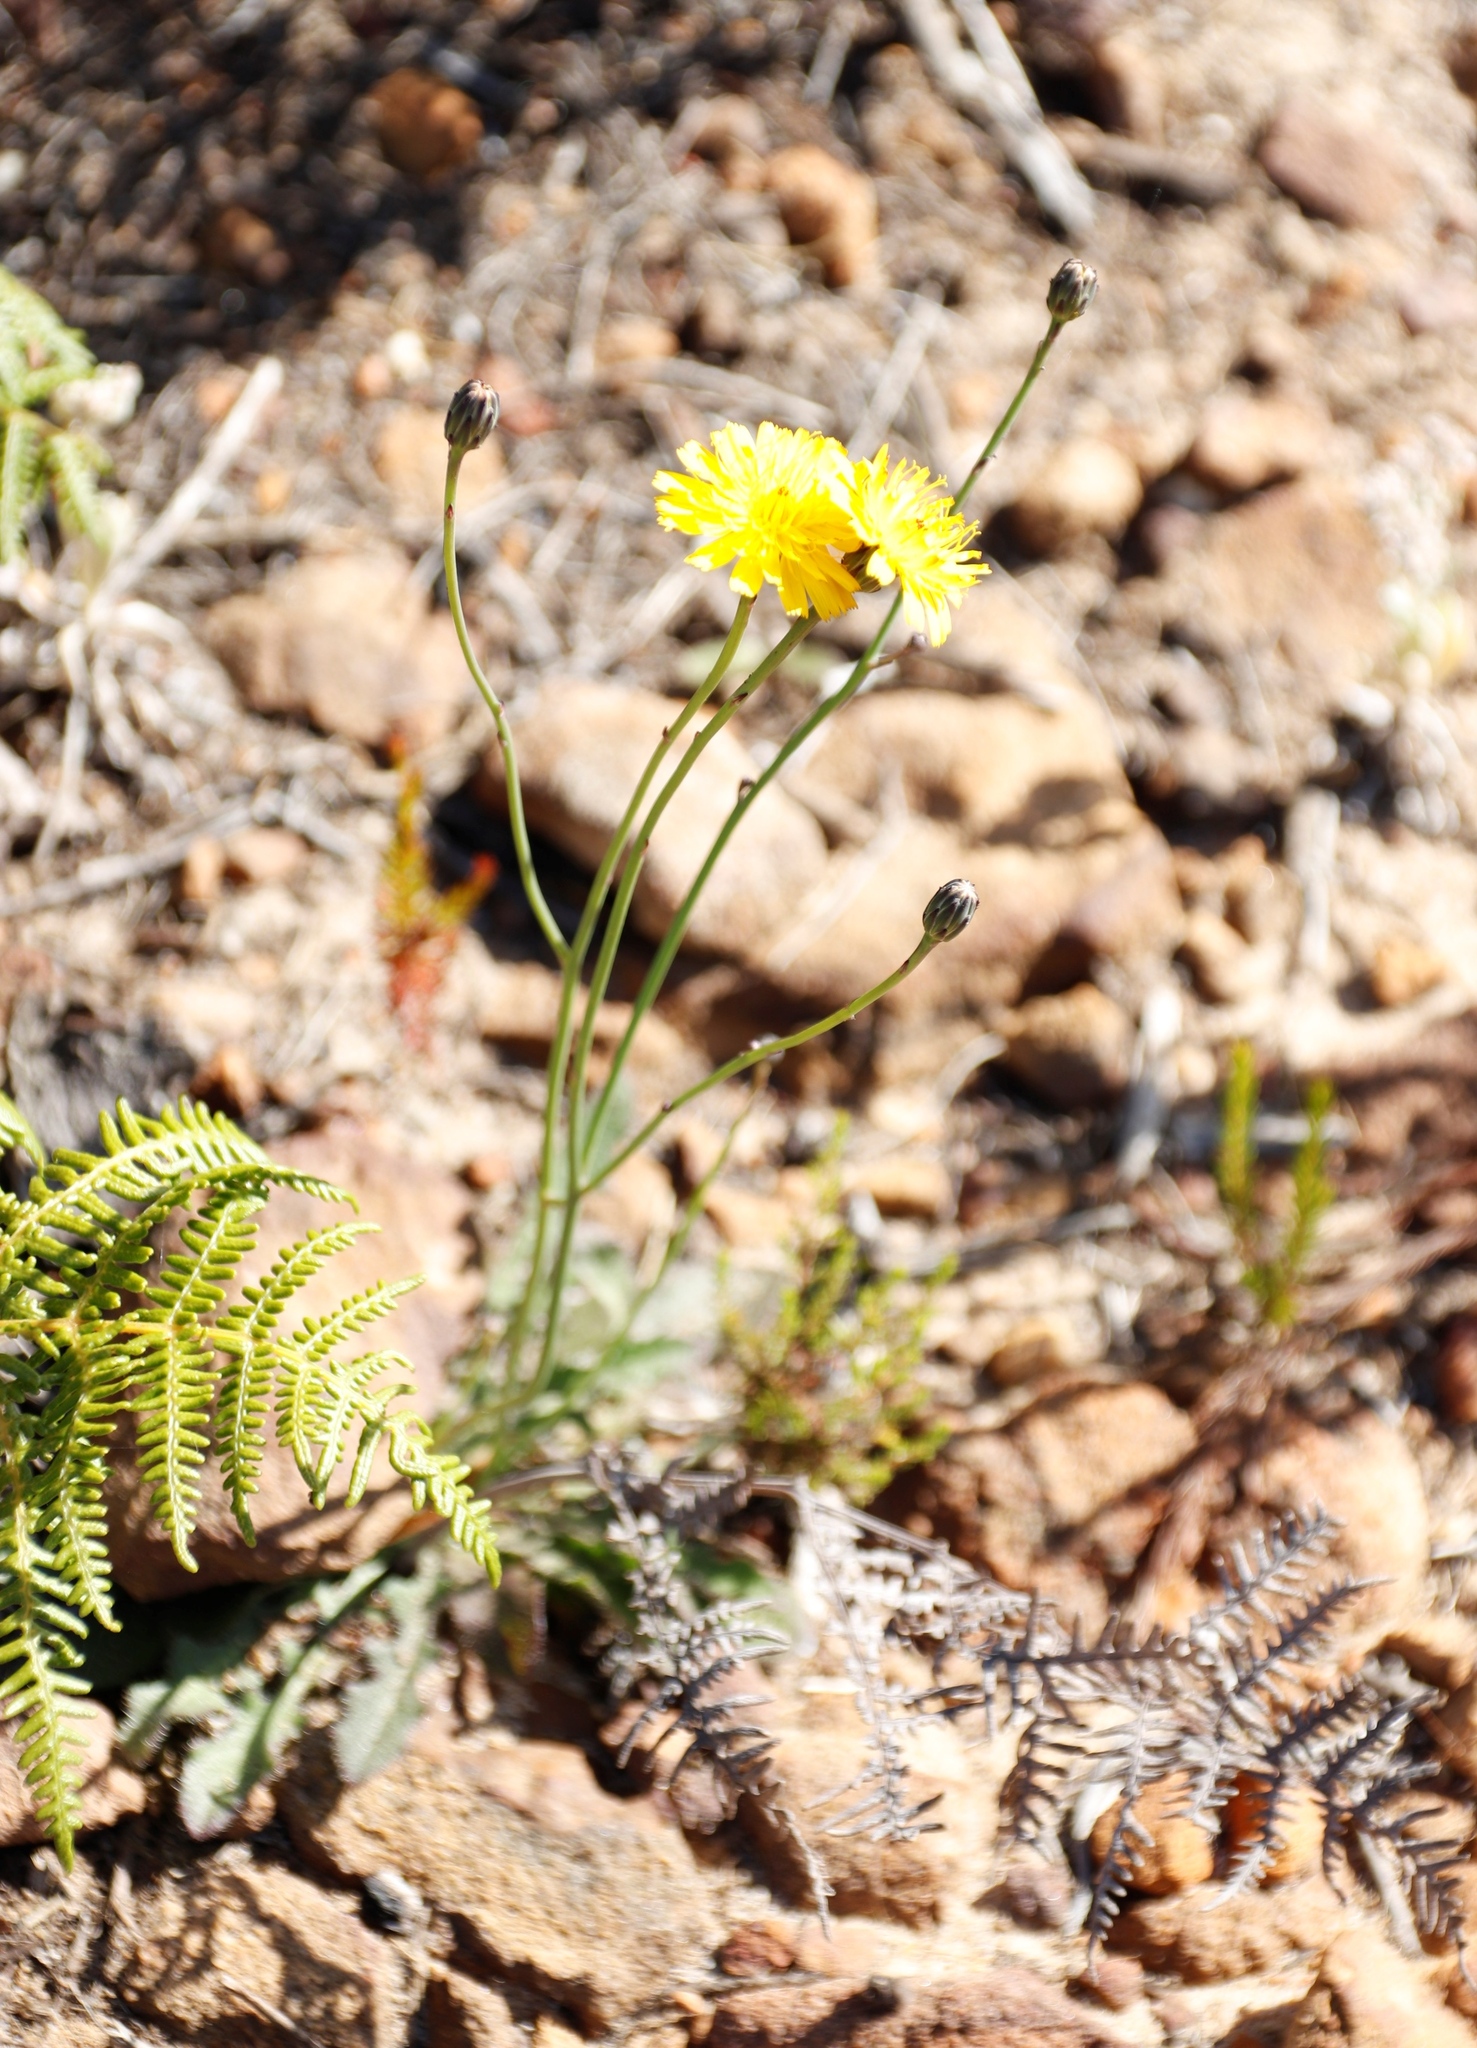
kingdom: Plantae
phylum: Tracheophyta
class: Magnoliopsida
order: Asterales
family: Asteraceae
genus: Hypochaeris
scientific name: Hypochaeris radicata
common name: Flatweed
